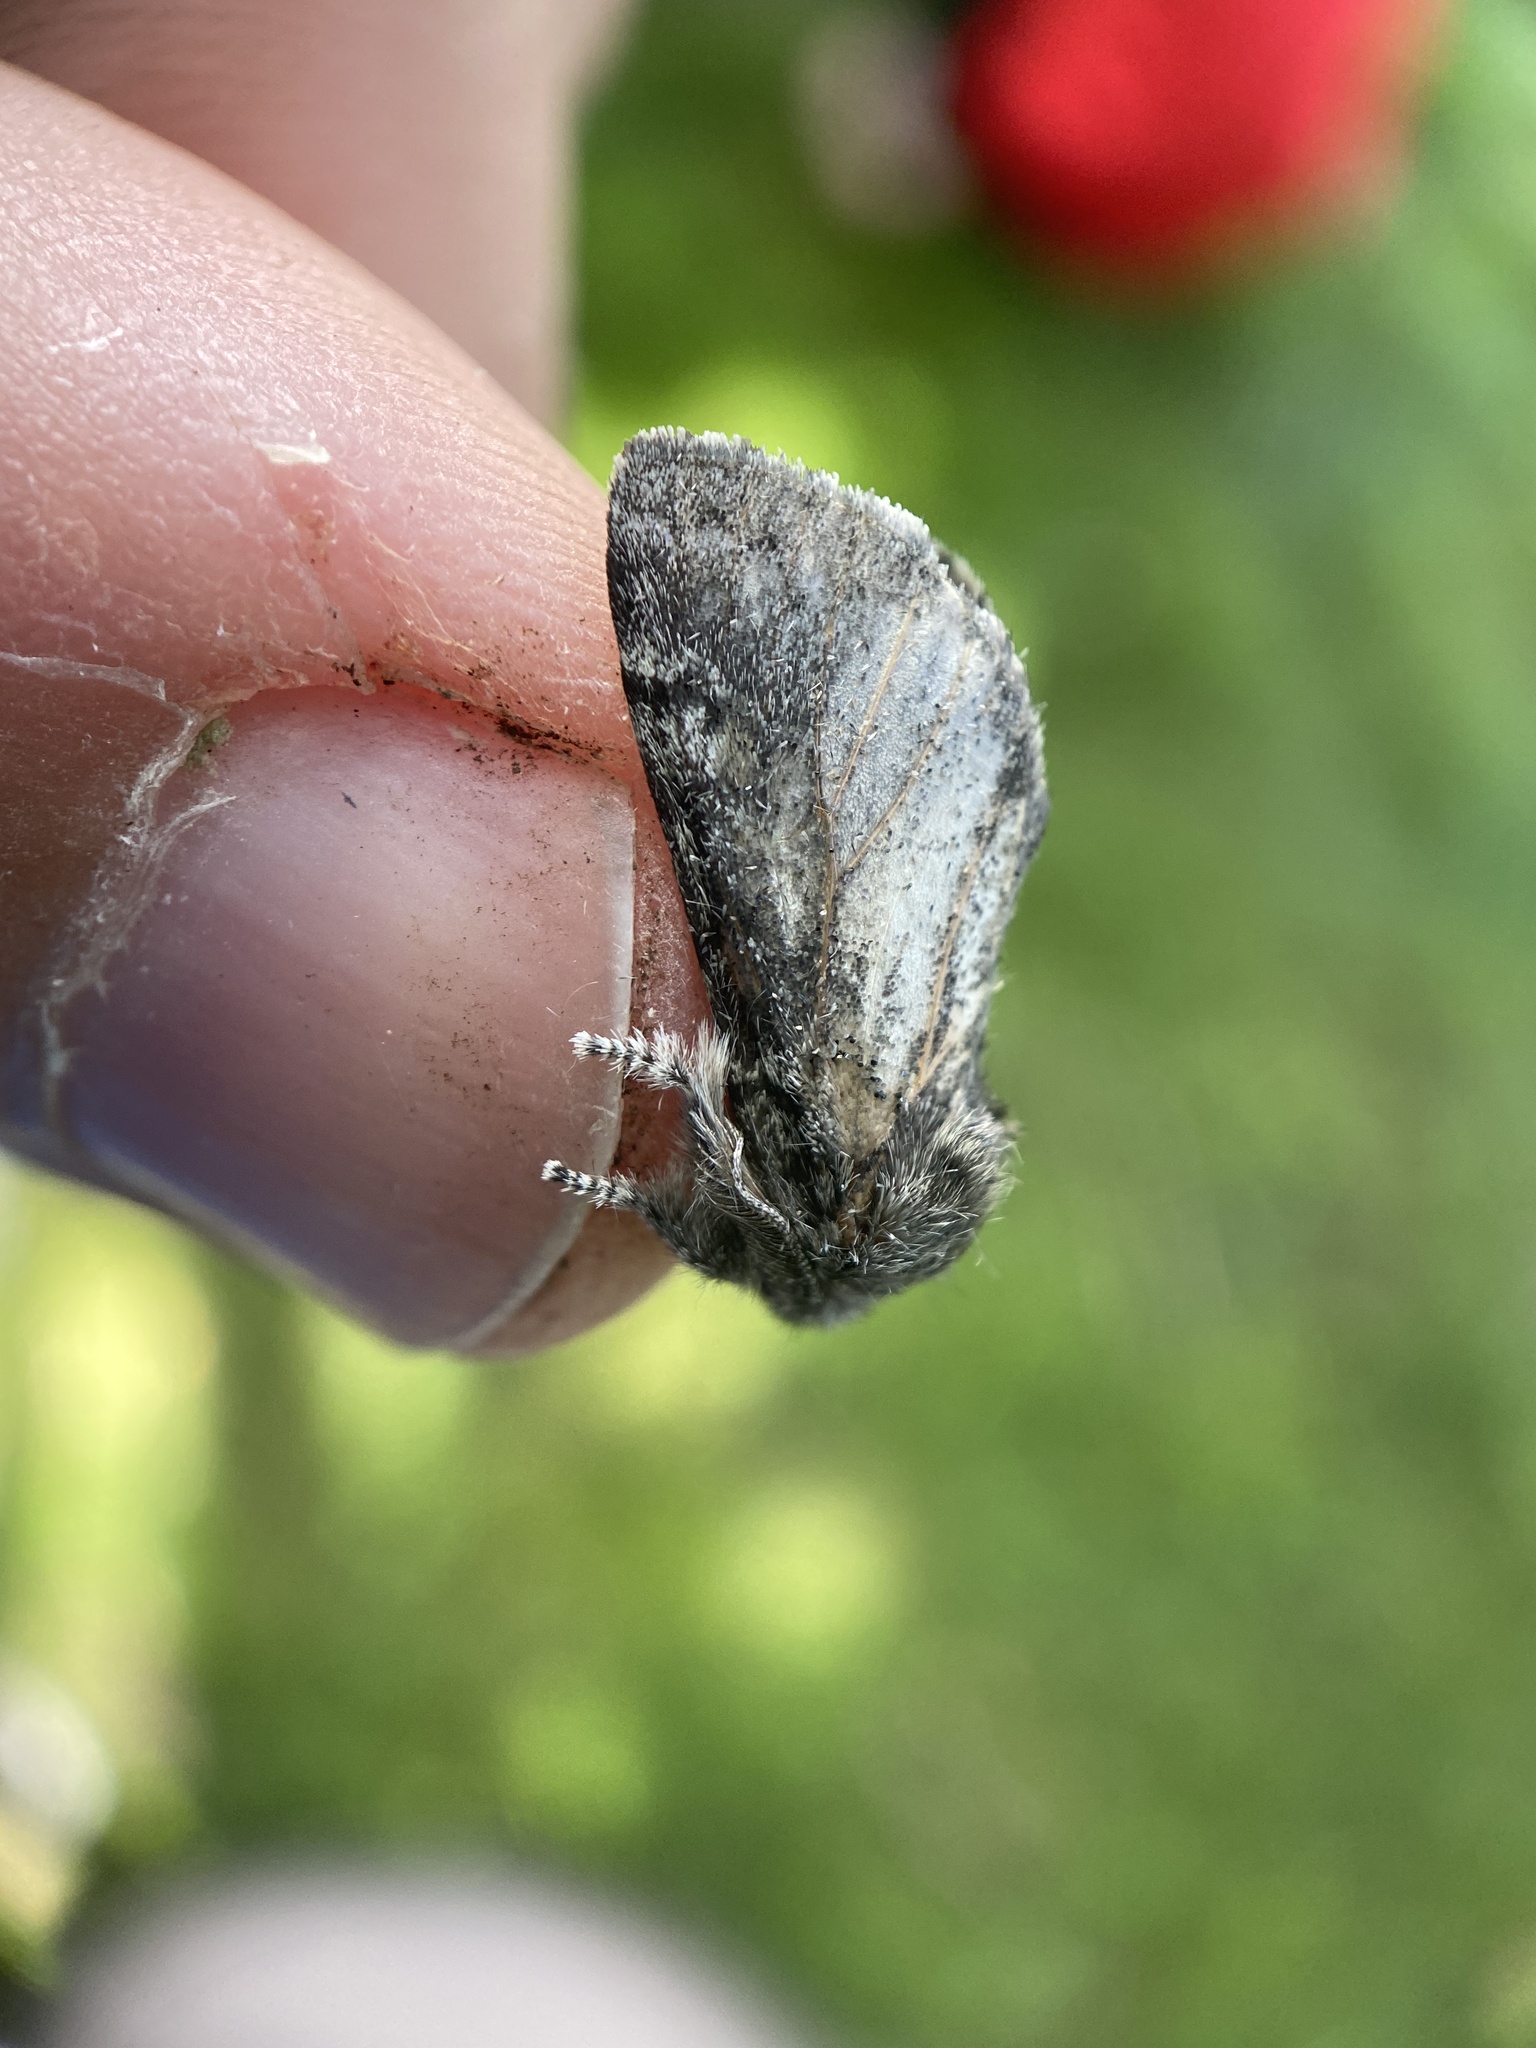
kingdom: Animalia
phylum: Arthropoda
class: Insecta
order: Lepidoptera
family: Notodontidae
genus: Gluphisia
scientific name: Gluphisia septentrionis
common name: Common gluphisia
